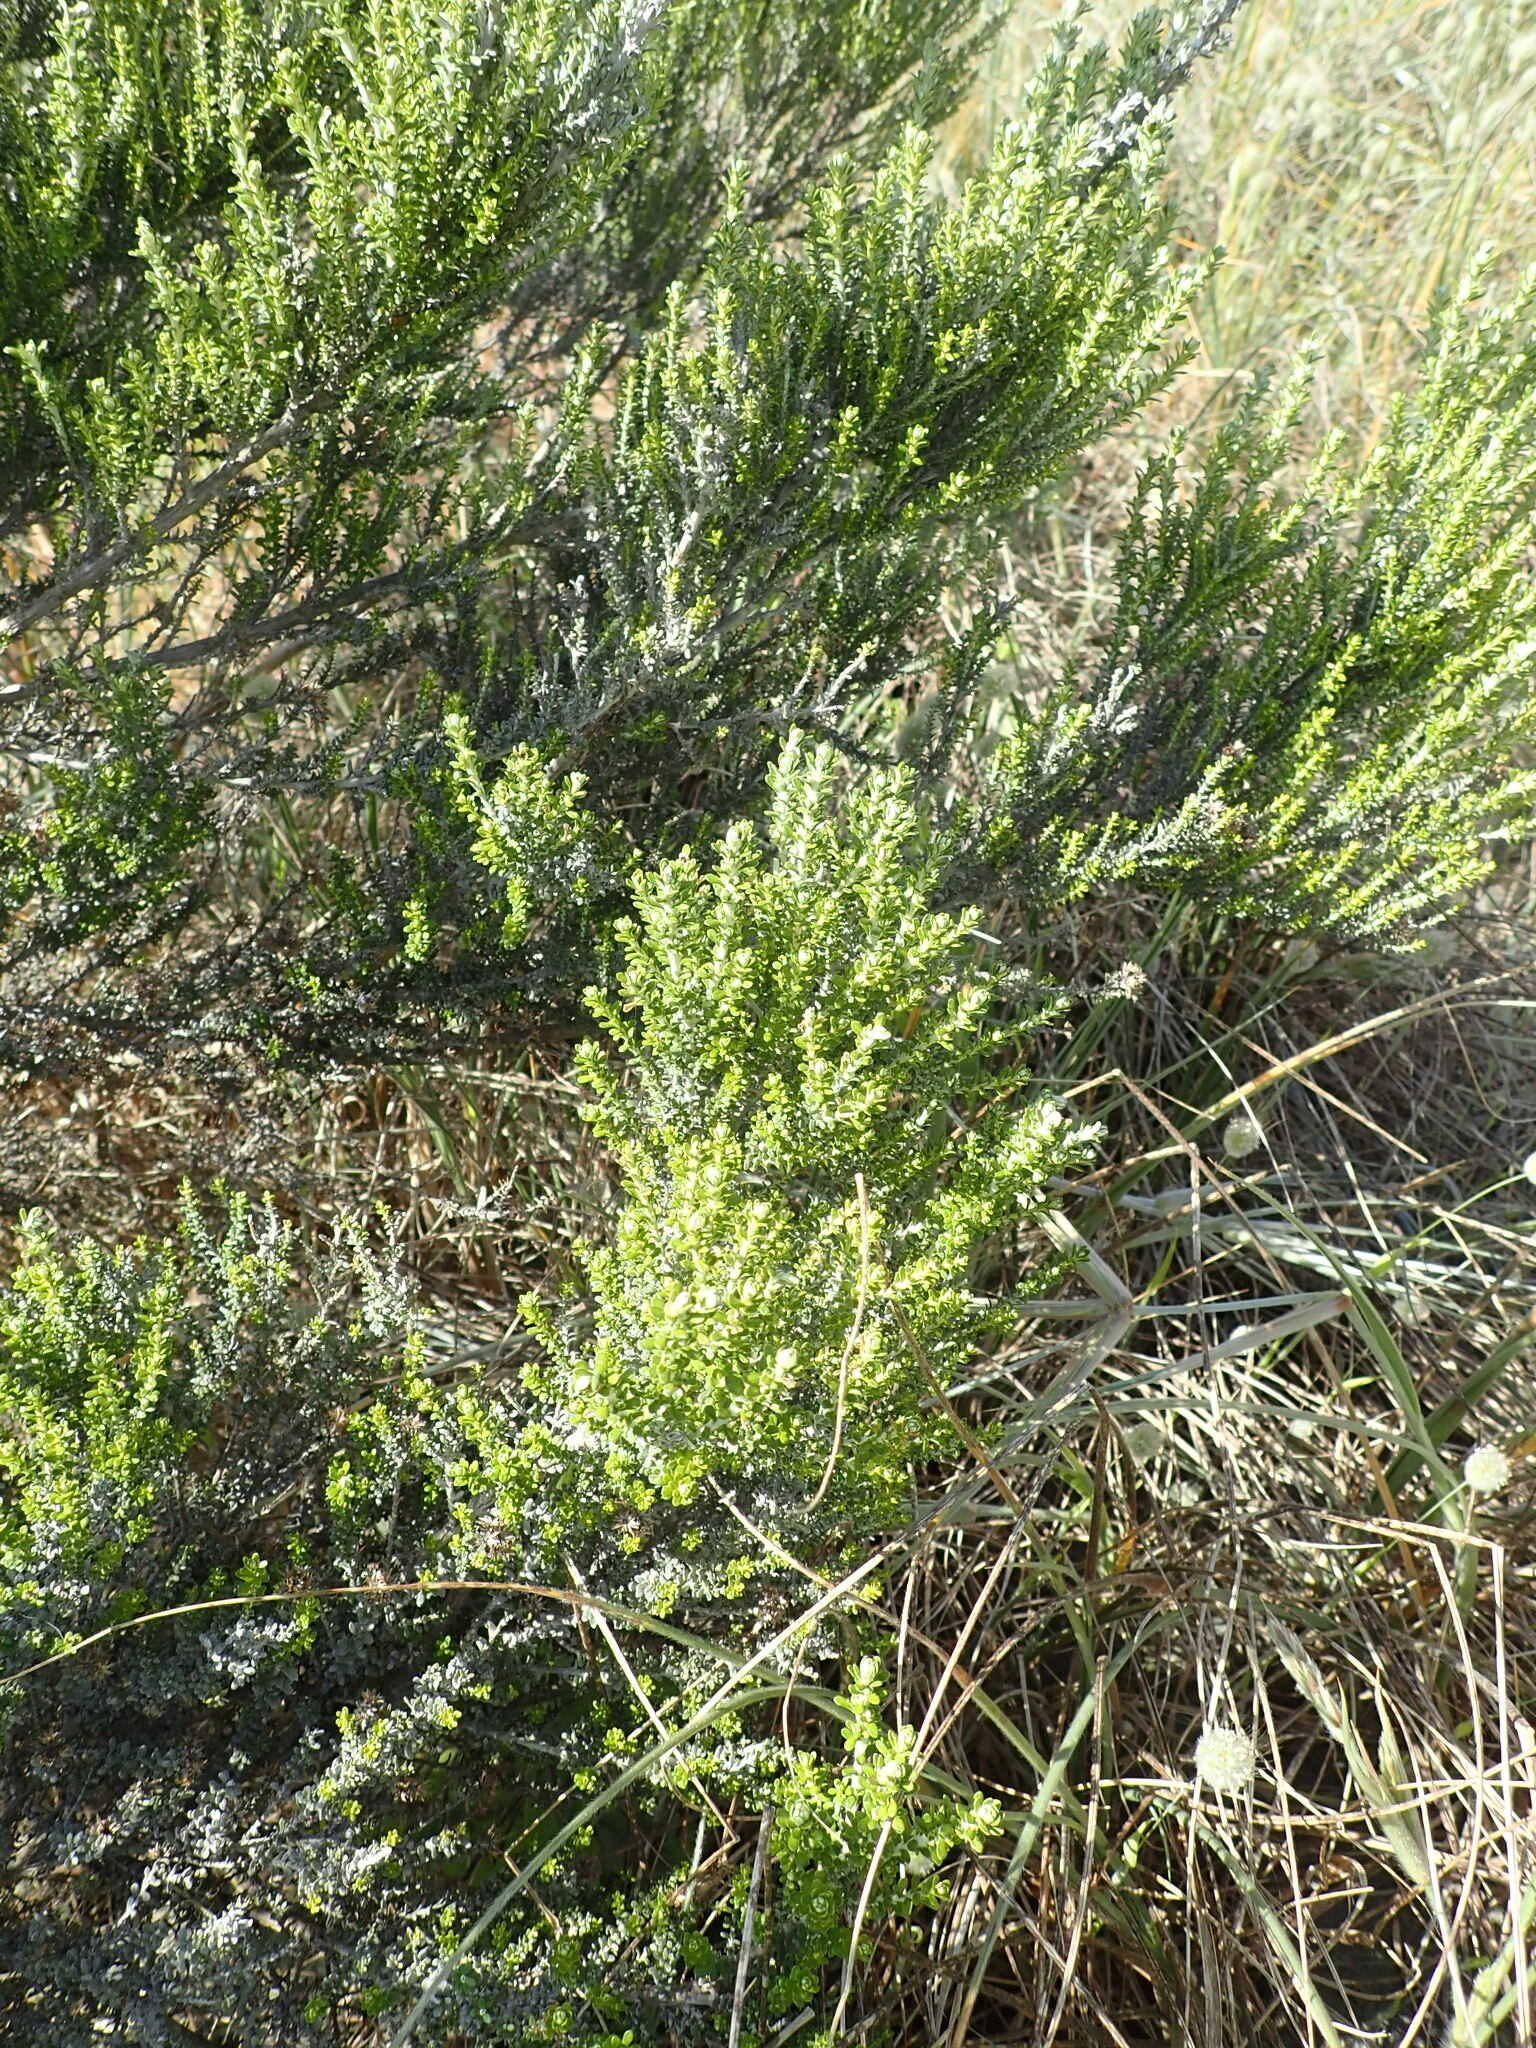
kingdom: Plantae
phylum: Tracheophyta
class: Magnoliopsida
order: Asterales
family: Asteraceae
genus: Ozothamnus
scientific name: Ozothamnus leptophyllus
